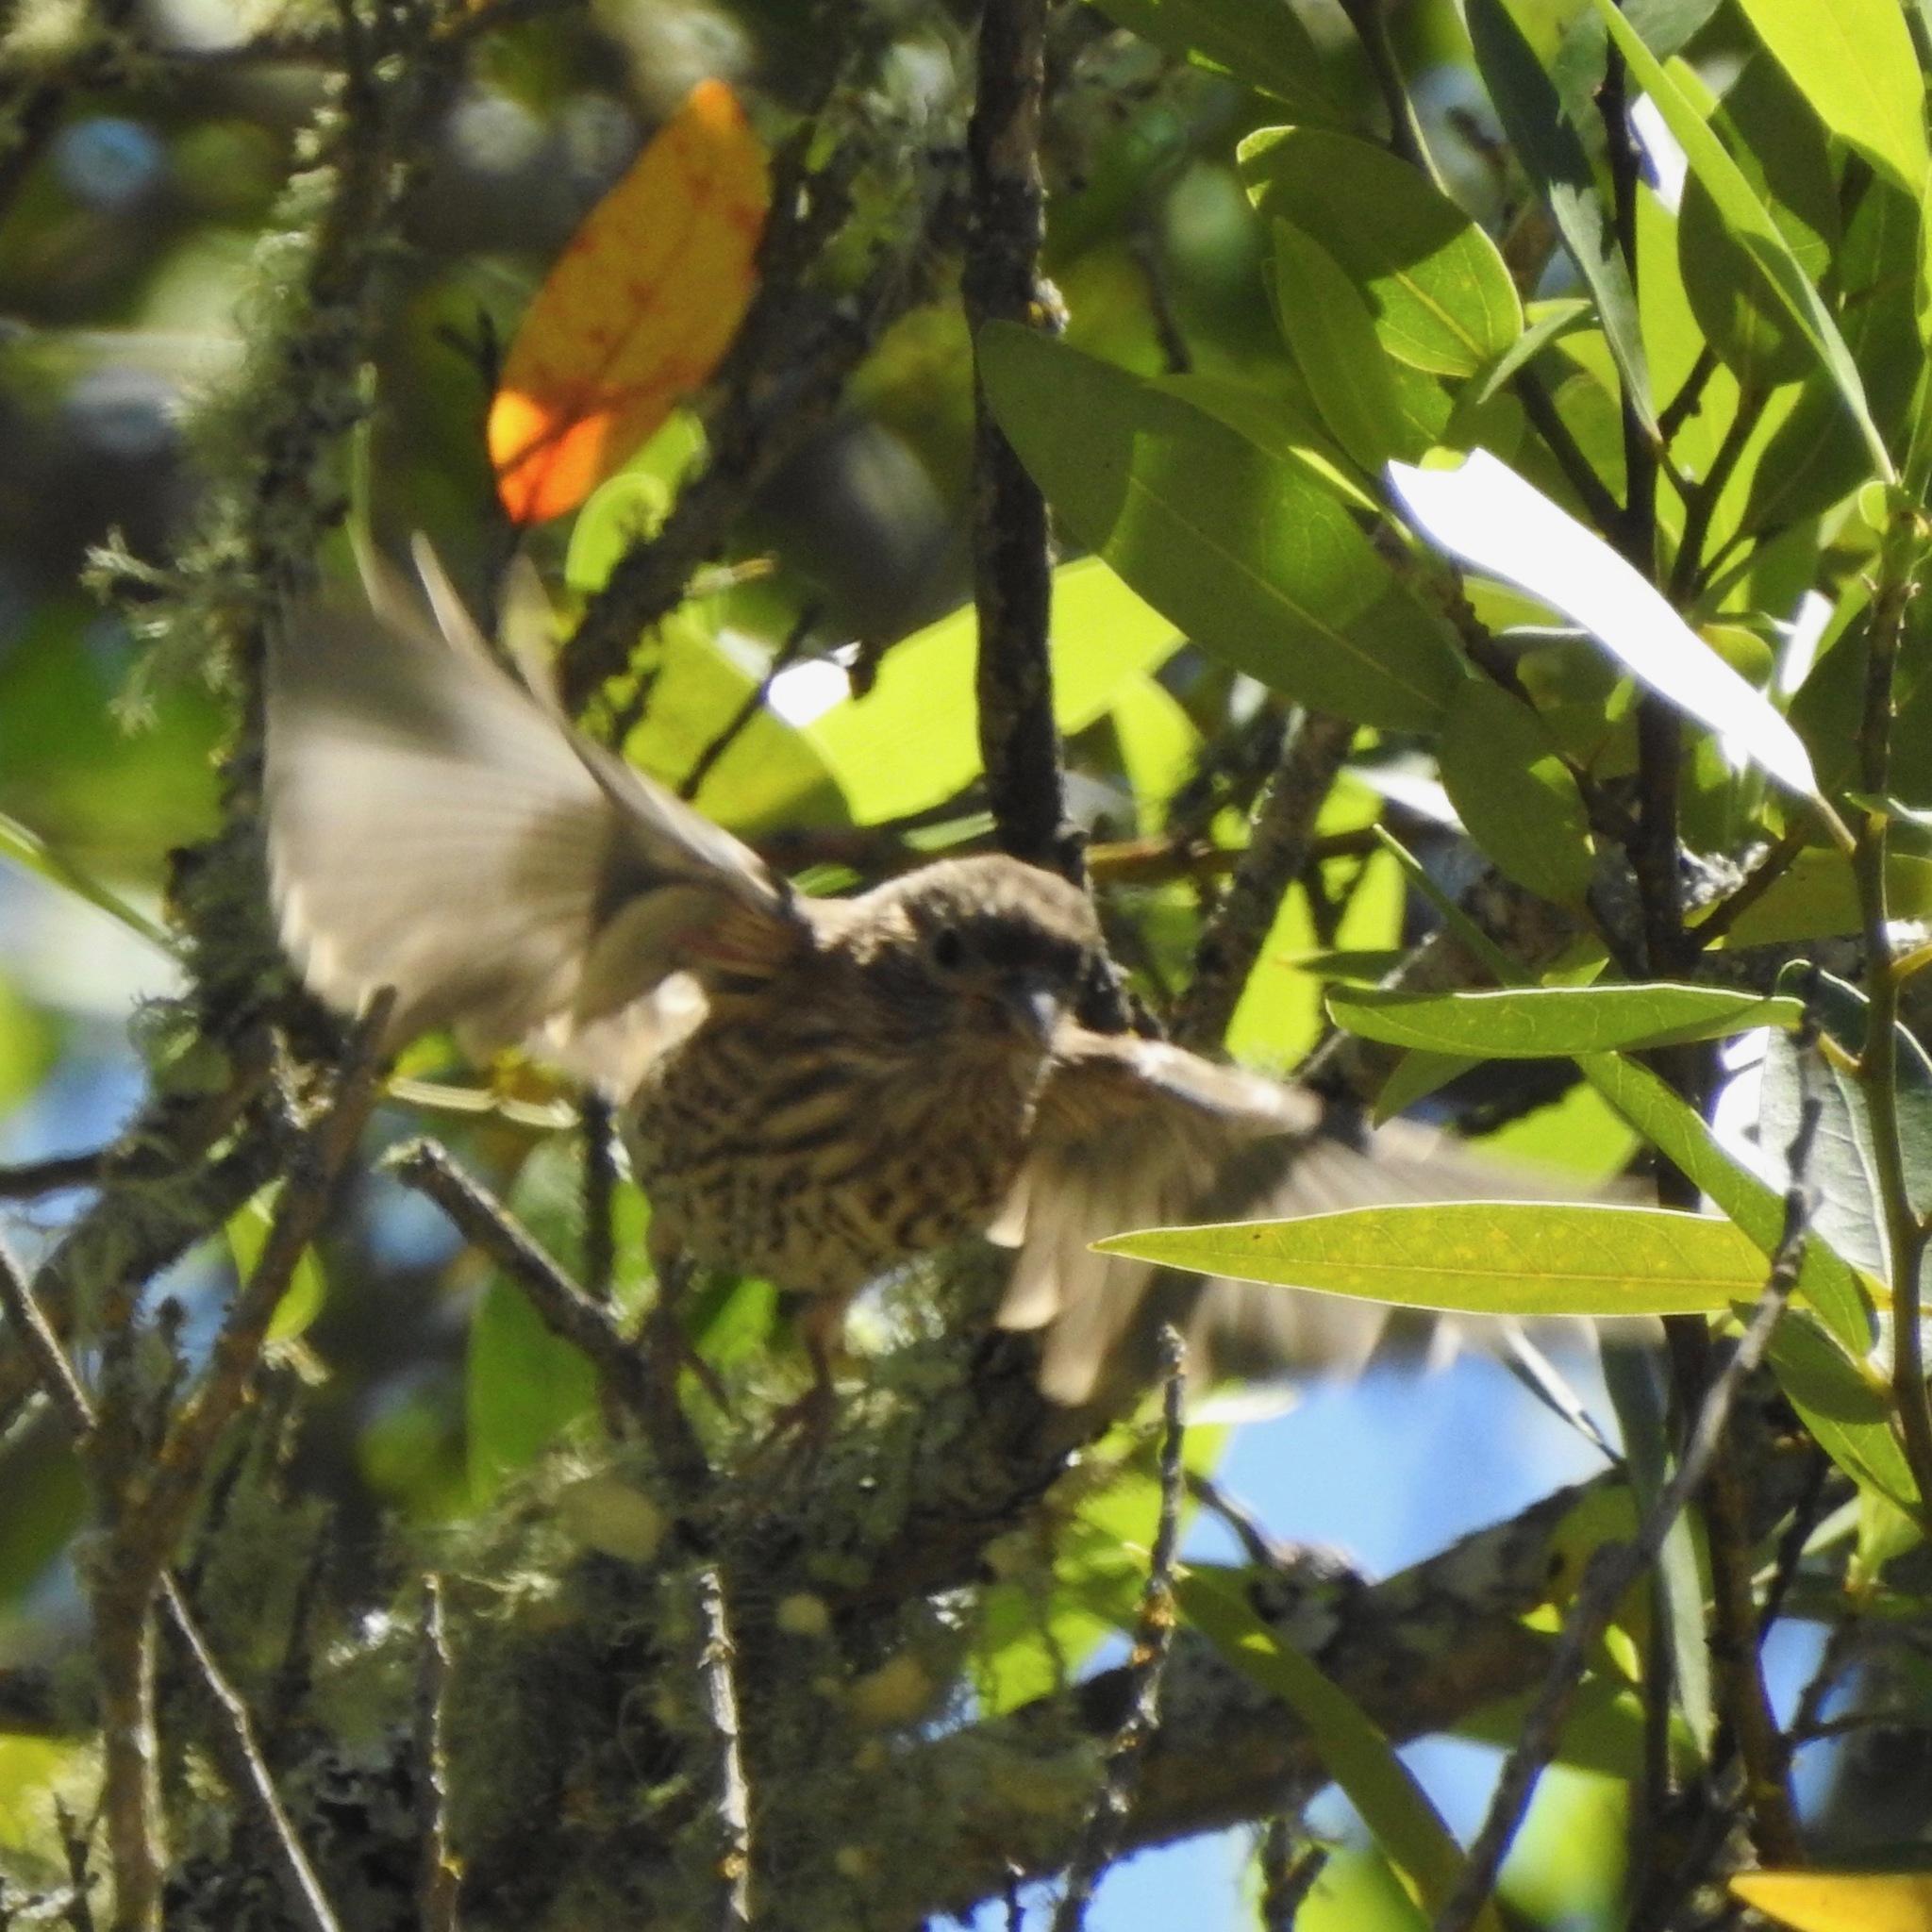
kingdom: Animalia
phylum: Chordata
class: Aves
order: Passeriformes
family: Fringillidae
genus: Haemorhous
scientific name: Haemorhous mexicanus
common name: House finch
